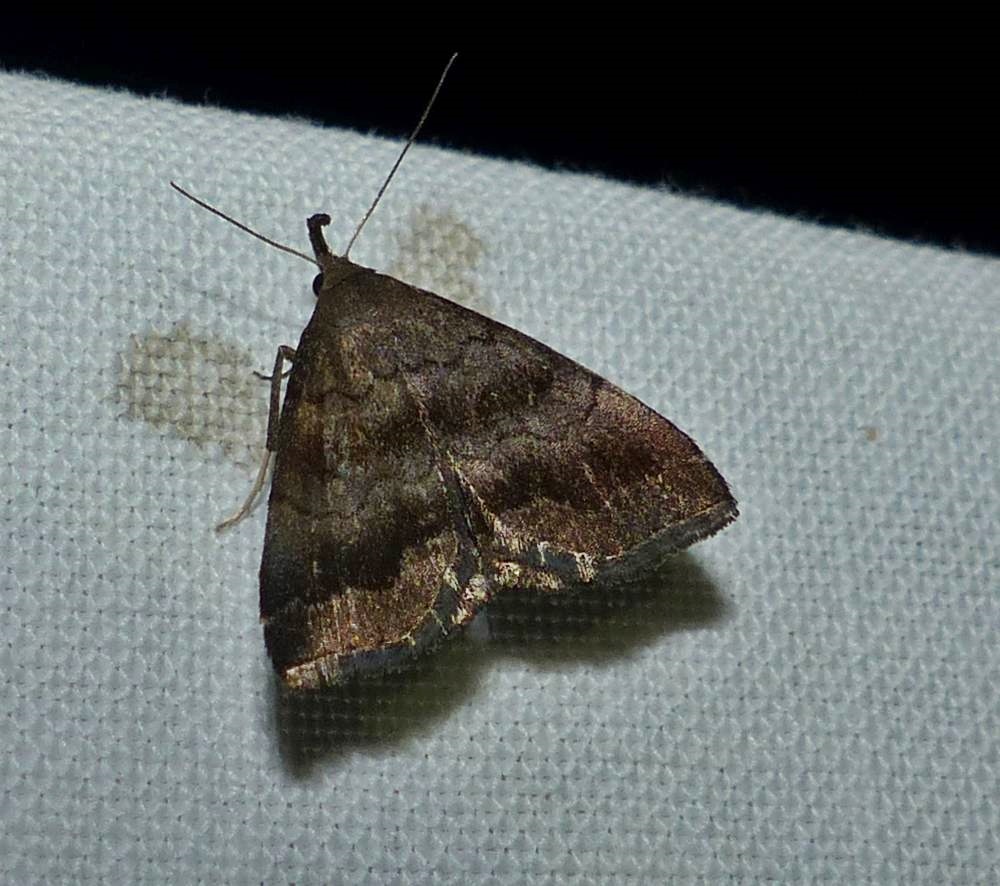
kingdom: Animalia
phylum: Arthropoda
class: Insecta
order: Lepidoptera
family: Erebidae
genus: Phalaenostola
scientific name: Phalaenostola larentioides
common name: Black-banded owlet
